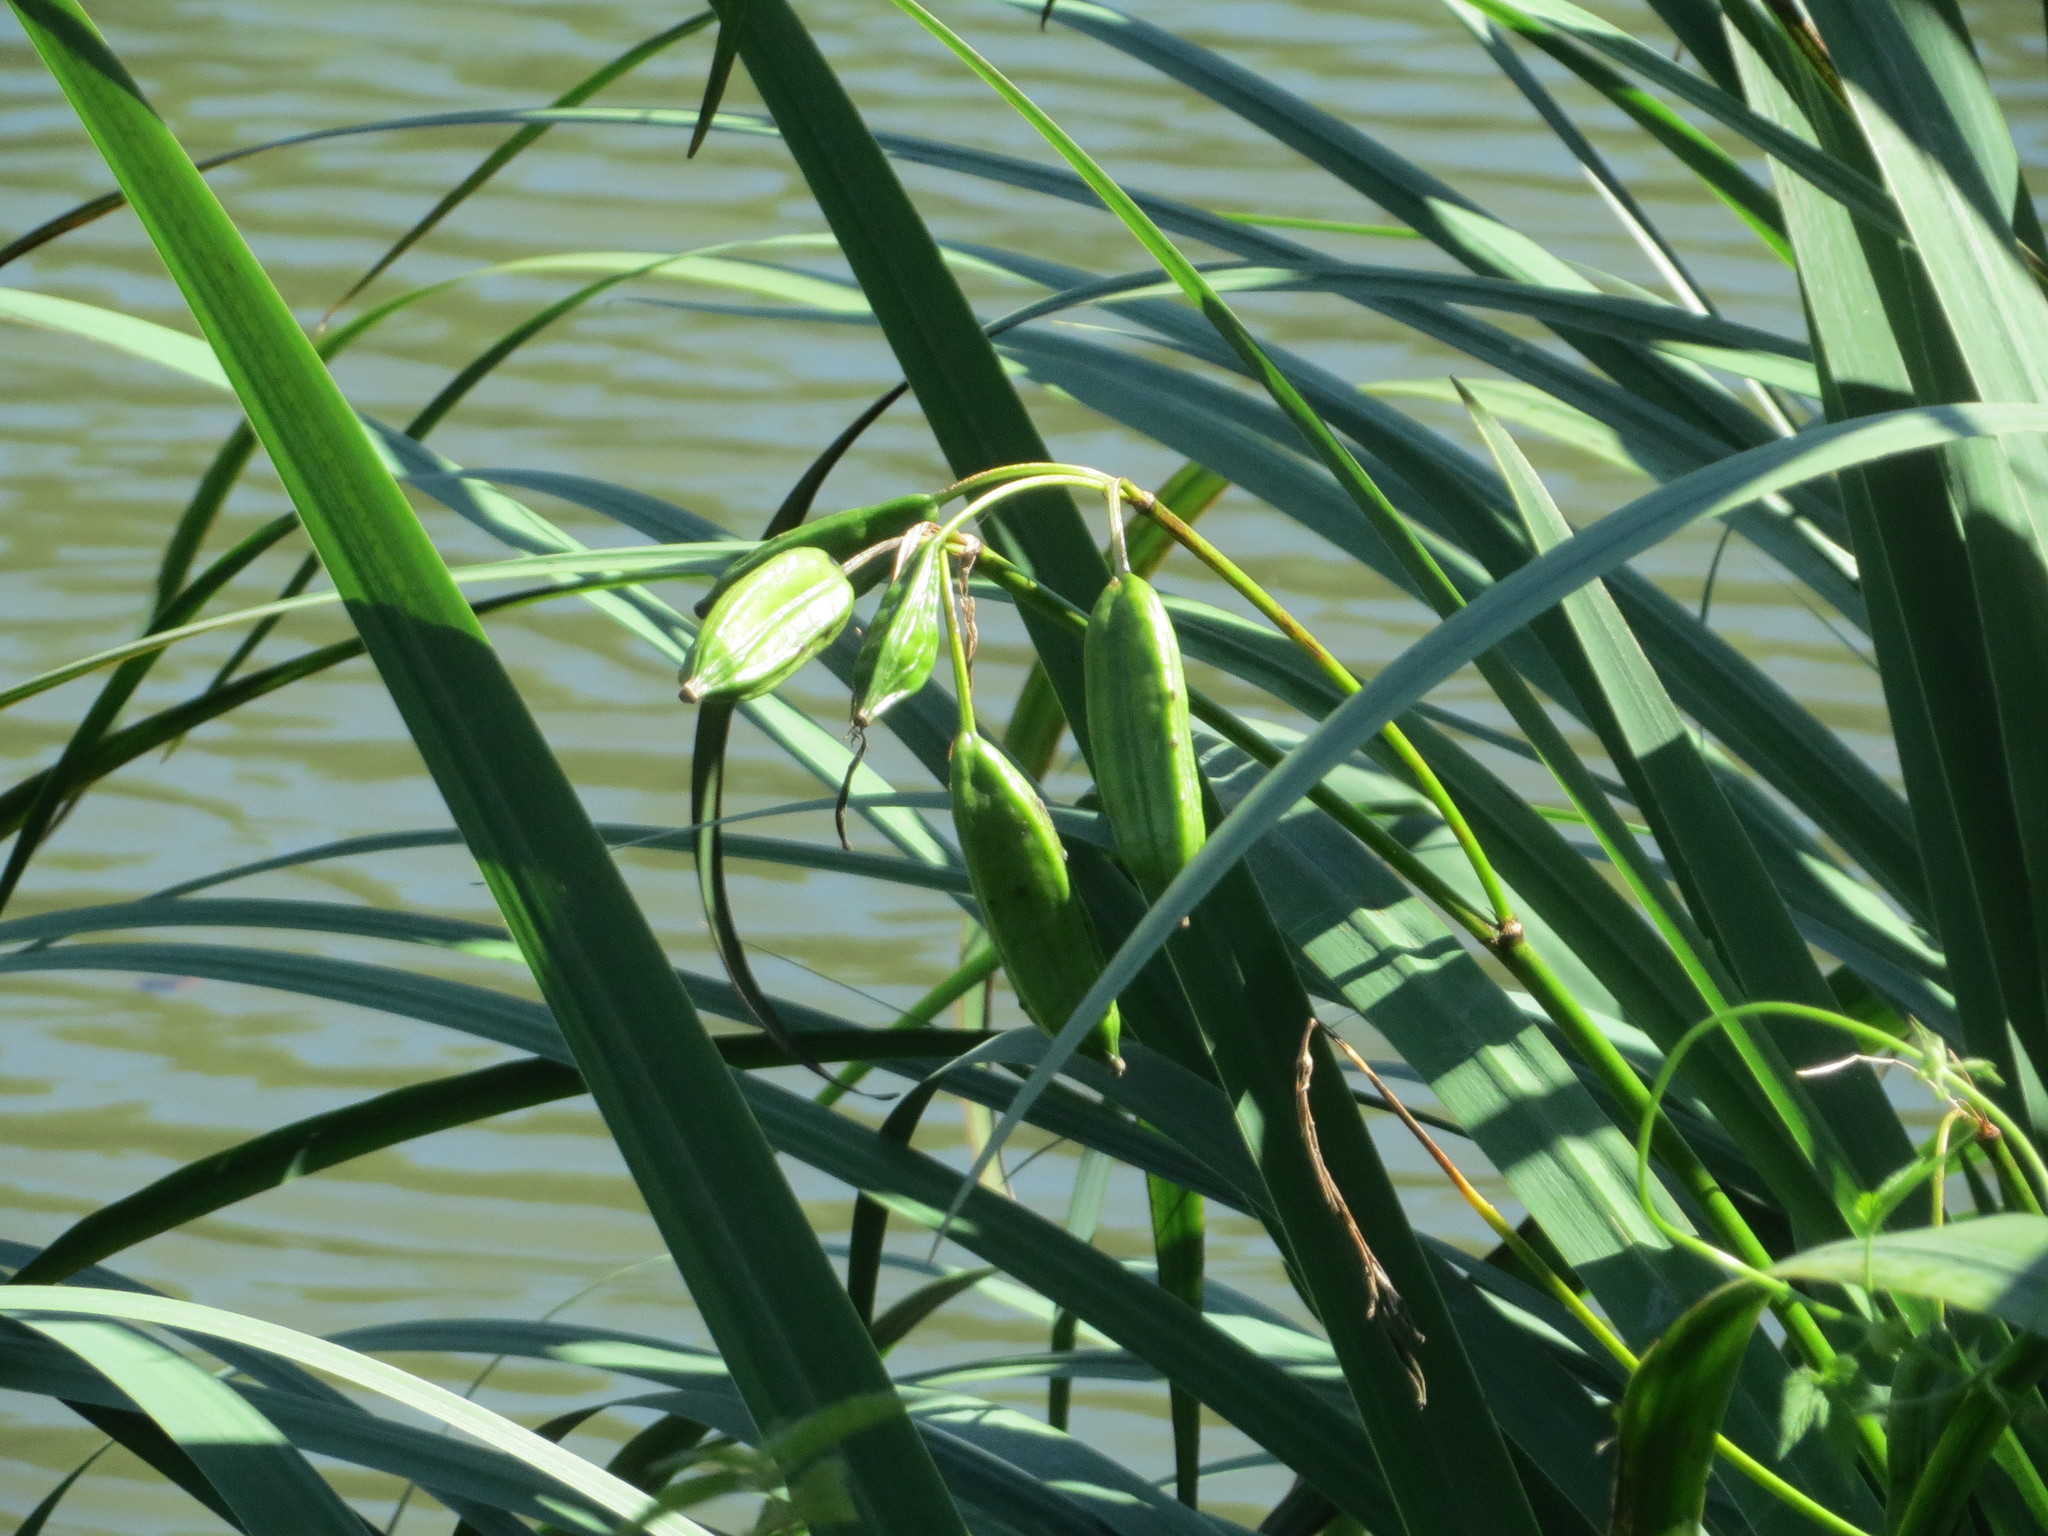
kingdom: Plantae
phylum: Tracheophyta
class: Liliopsida
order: Asparagales
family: Iridaceae
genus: Iris
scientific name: Iris pseudacorus
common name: Yellow flag
